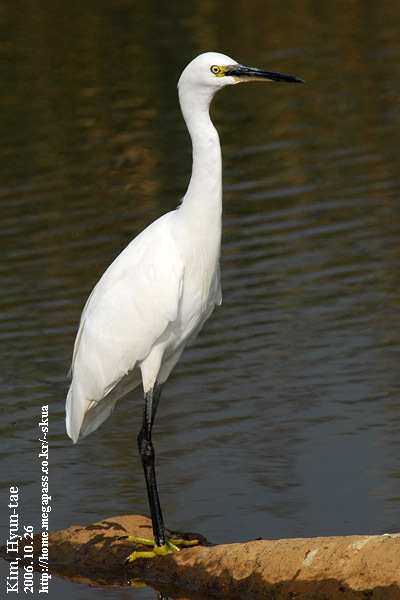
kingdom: Animalia
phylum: Chordata
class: Aves
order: Pelecaniformes
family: Ardeidae
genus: Egretta
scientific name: Egretta garzetta
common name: Little egret
